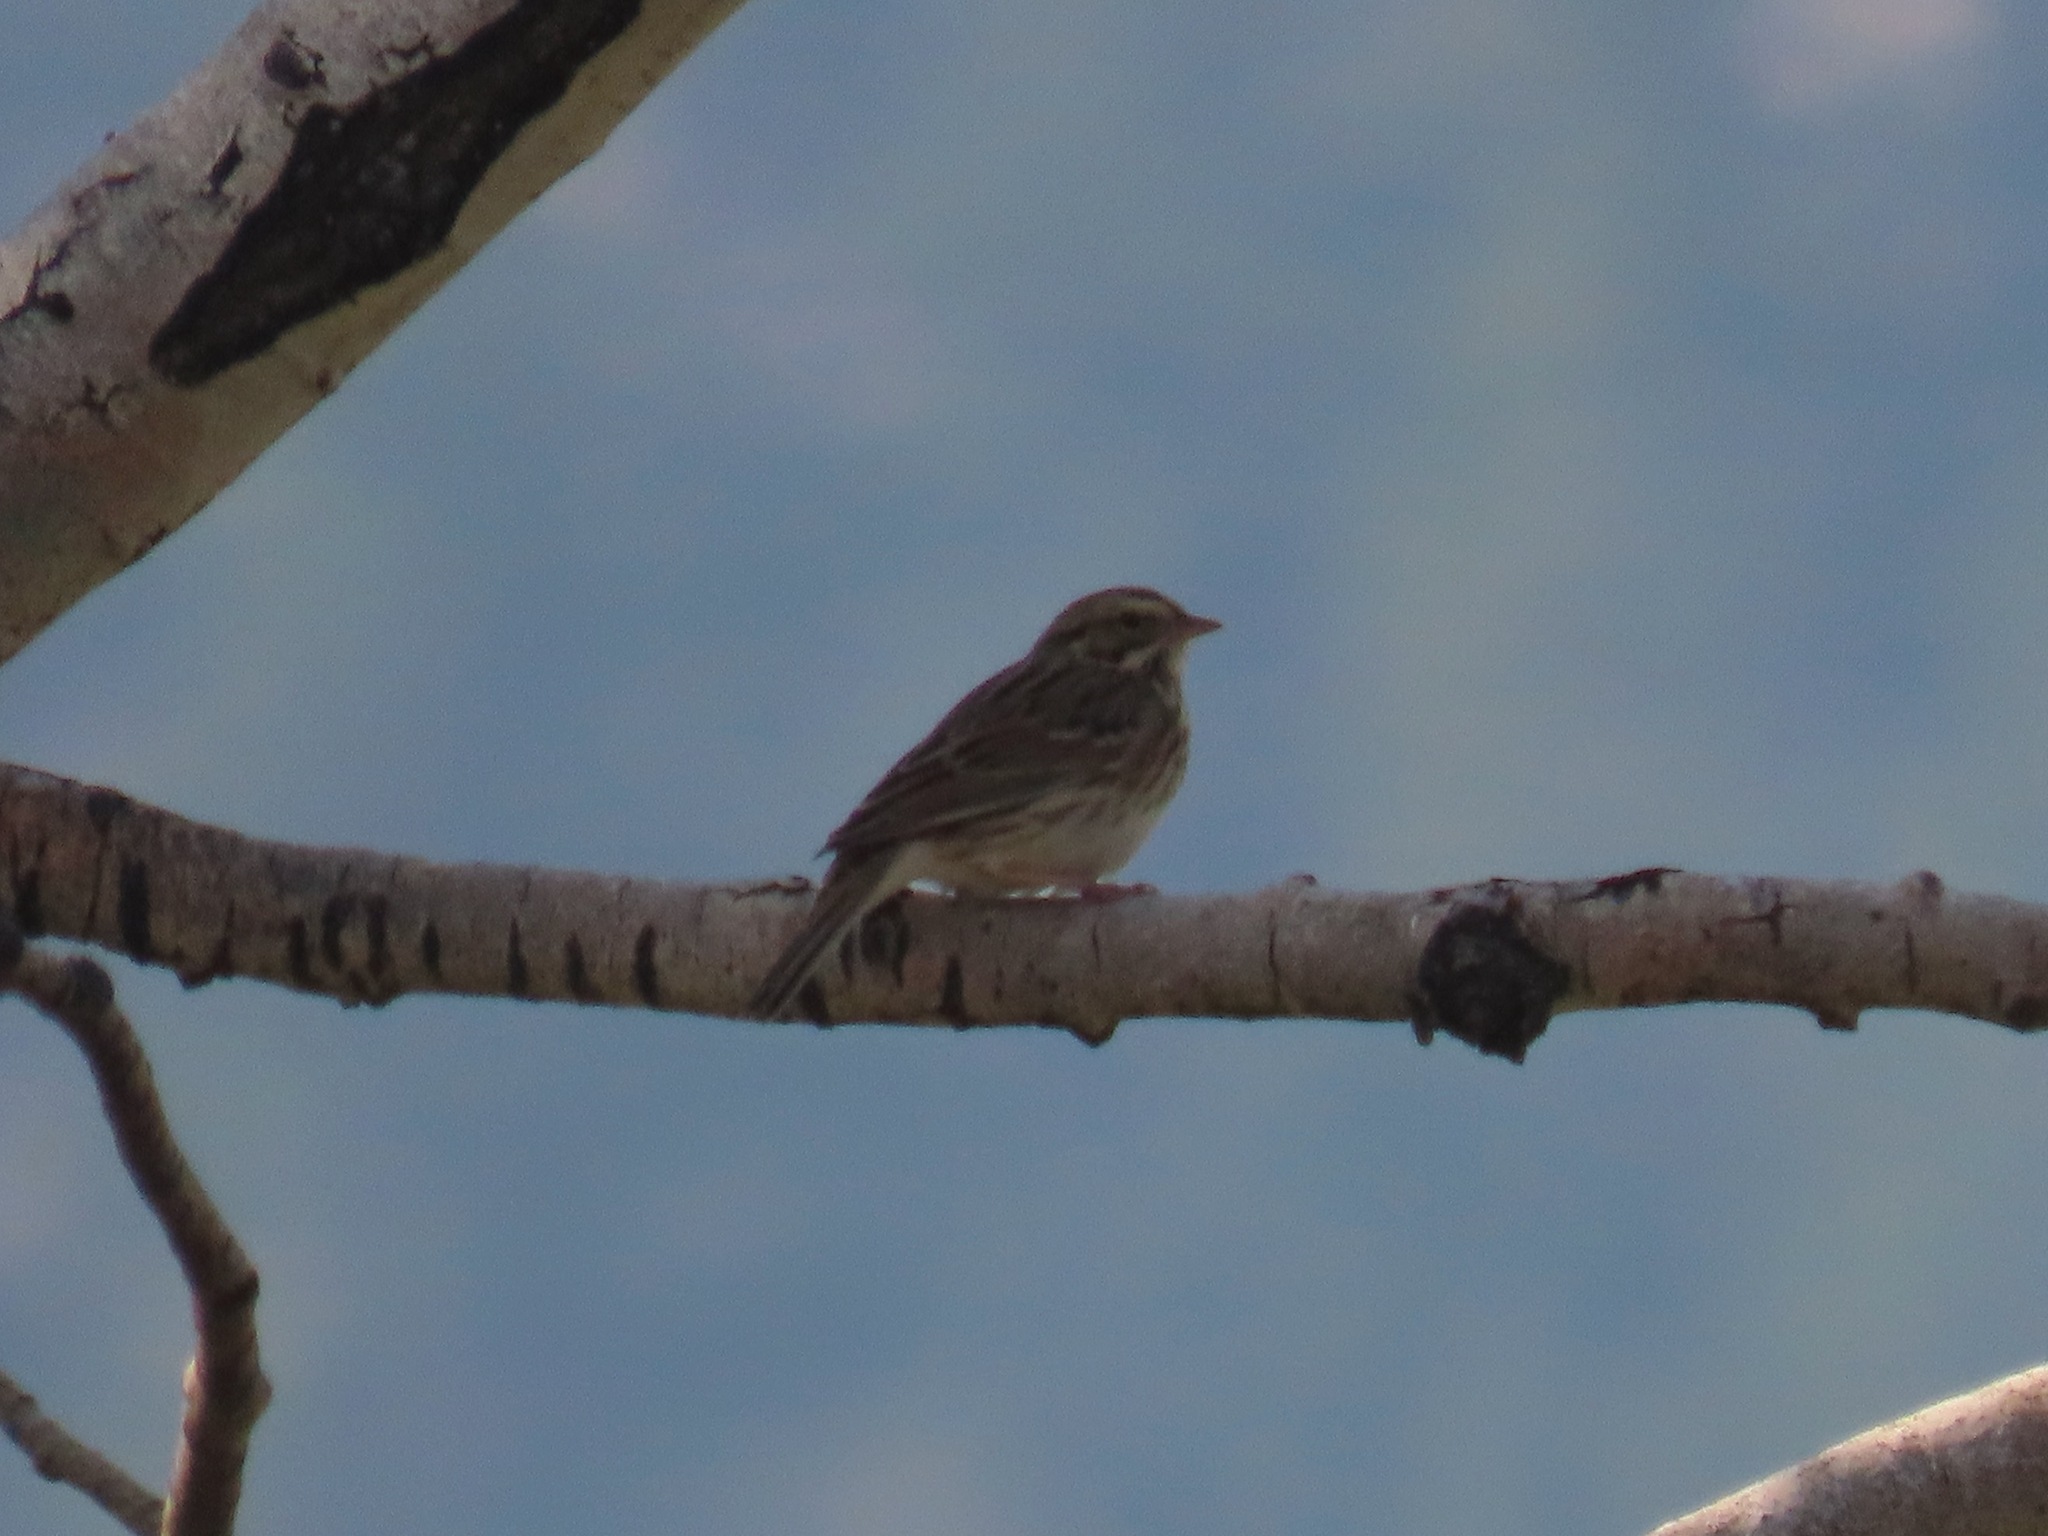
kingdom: Animalia
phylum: Chordata
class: Aves
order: Passeriformes
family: Passerellidae
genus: Passerculus
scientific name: Passerculus sandwichensis
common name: Savannah sparrow
